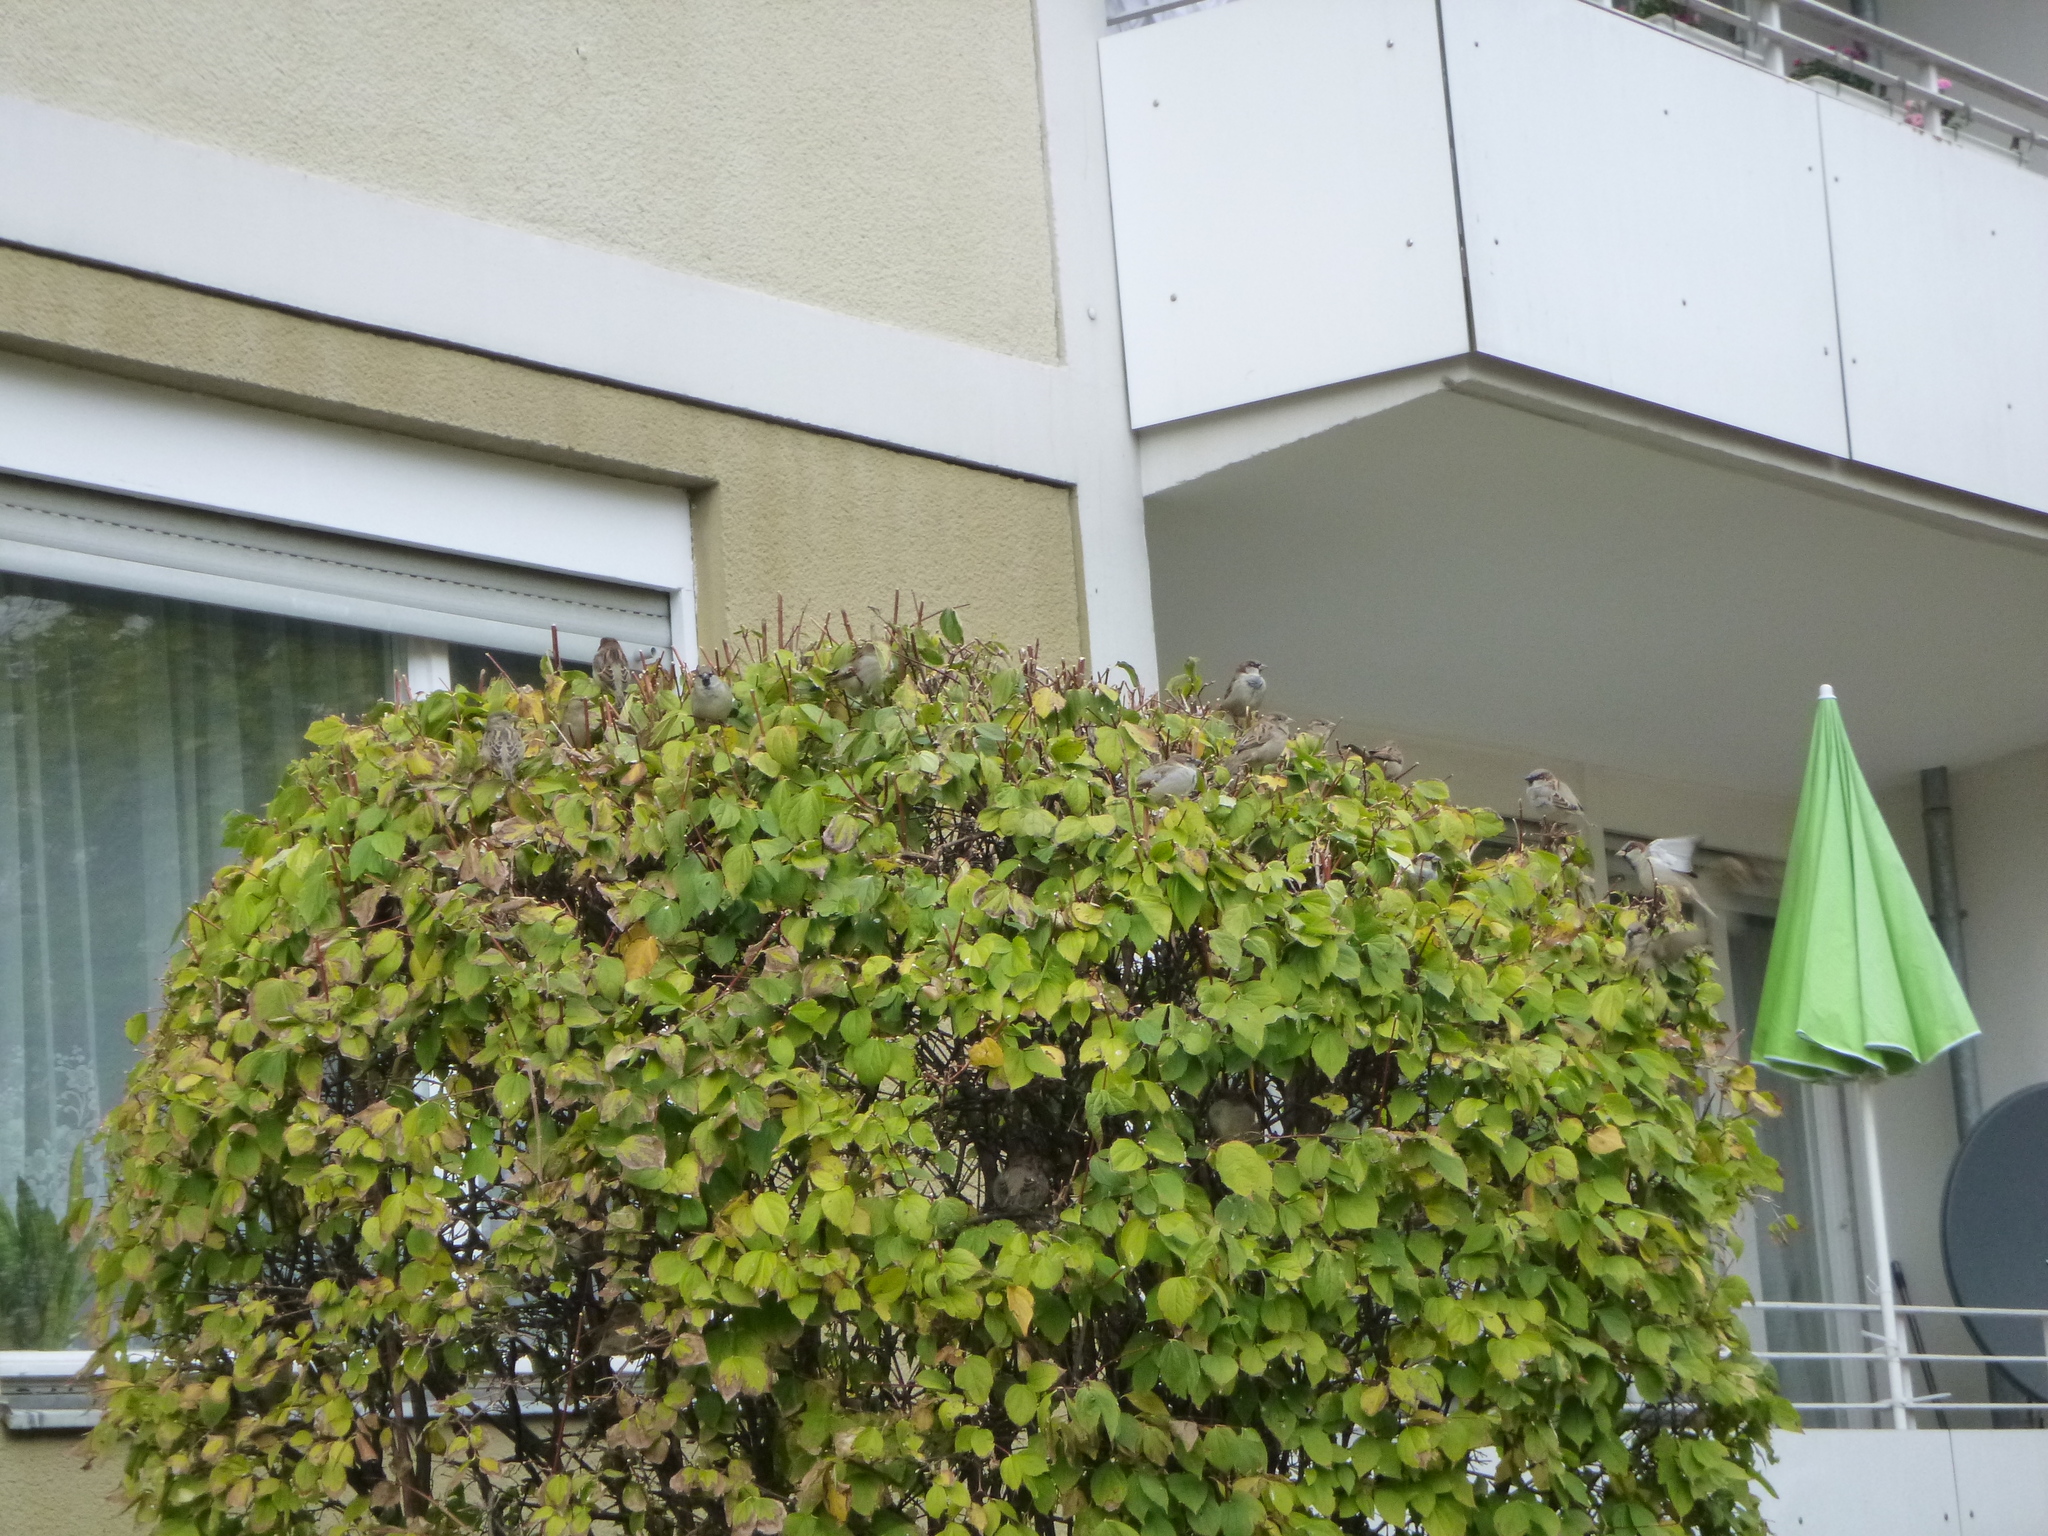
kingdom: Animalia
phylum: Chordata
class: Aves
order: Passeriformes
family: Passeridae
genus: Passer
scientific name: Passer domesticus
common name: House sparrow
